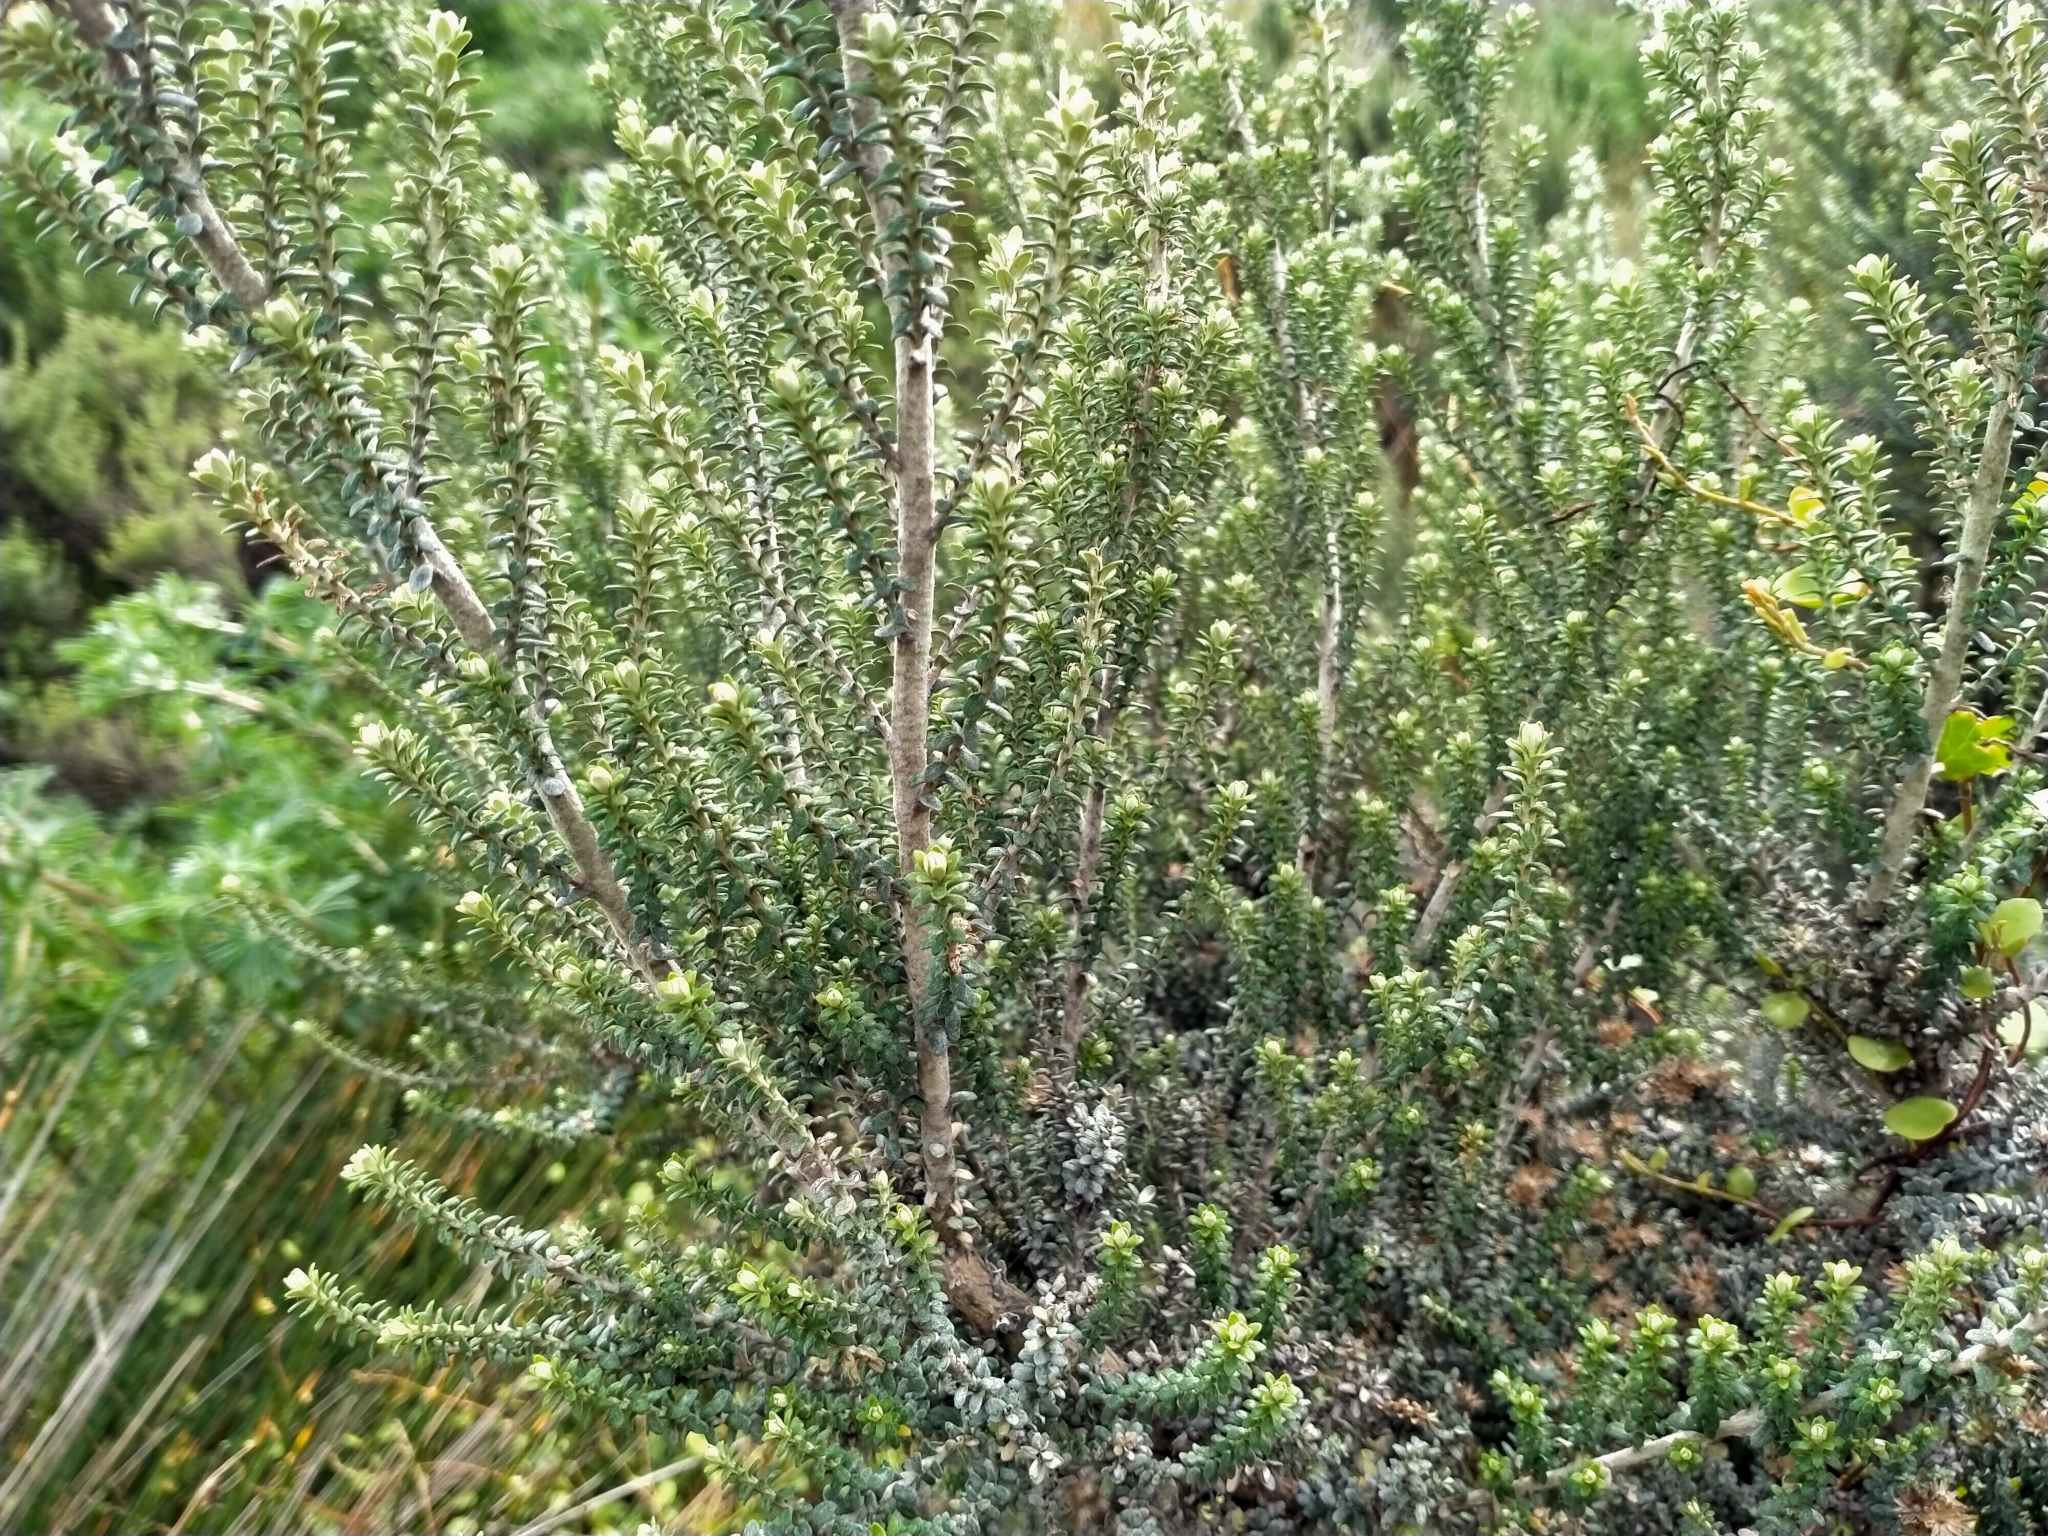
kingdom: Plantae
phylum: Tracheophyta
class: Magnoliopsida
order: Asterales
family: Asteraceae
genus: Ozothamnus
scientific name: Ozothamnus leptophyllus
